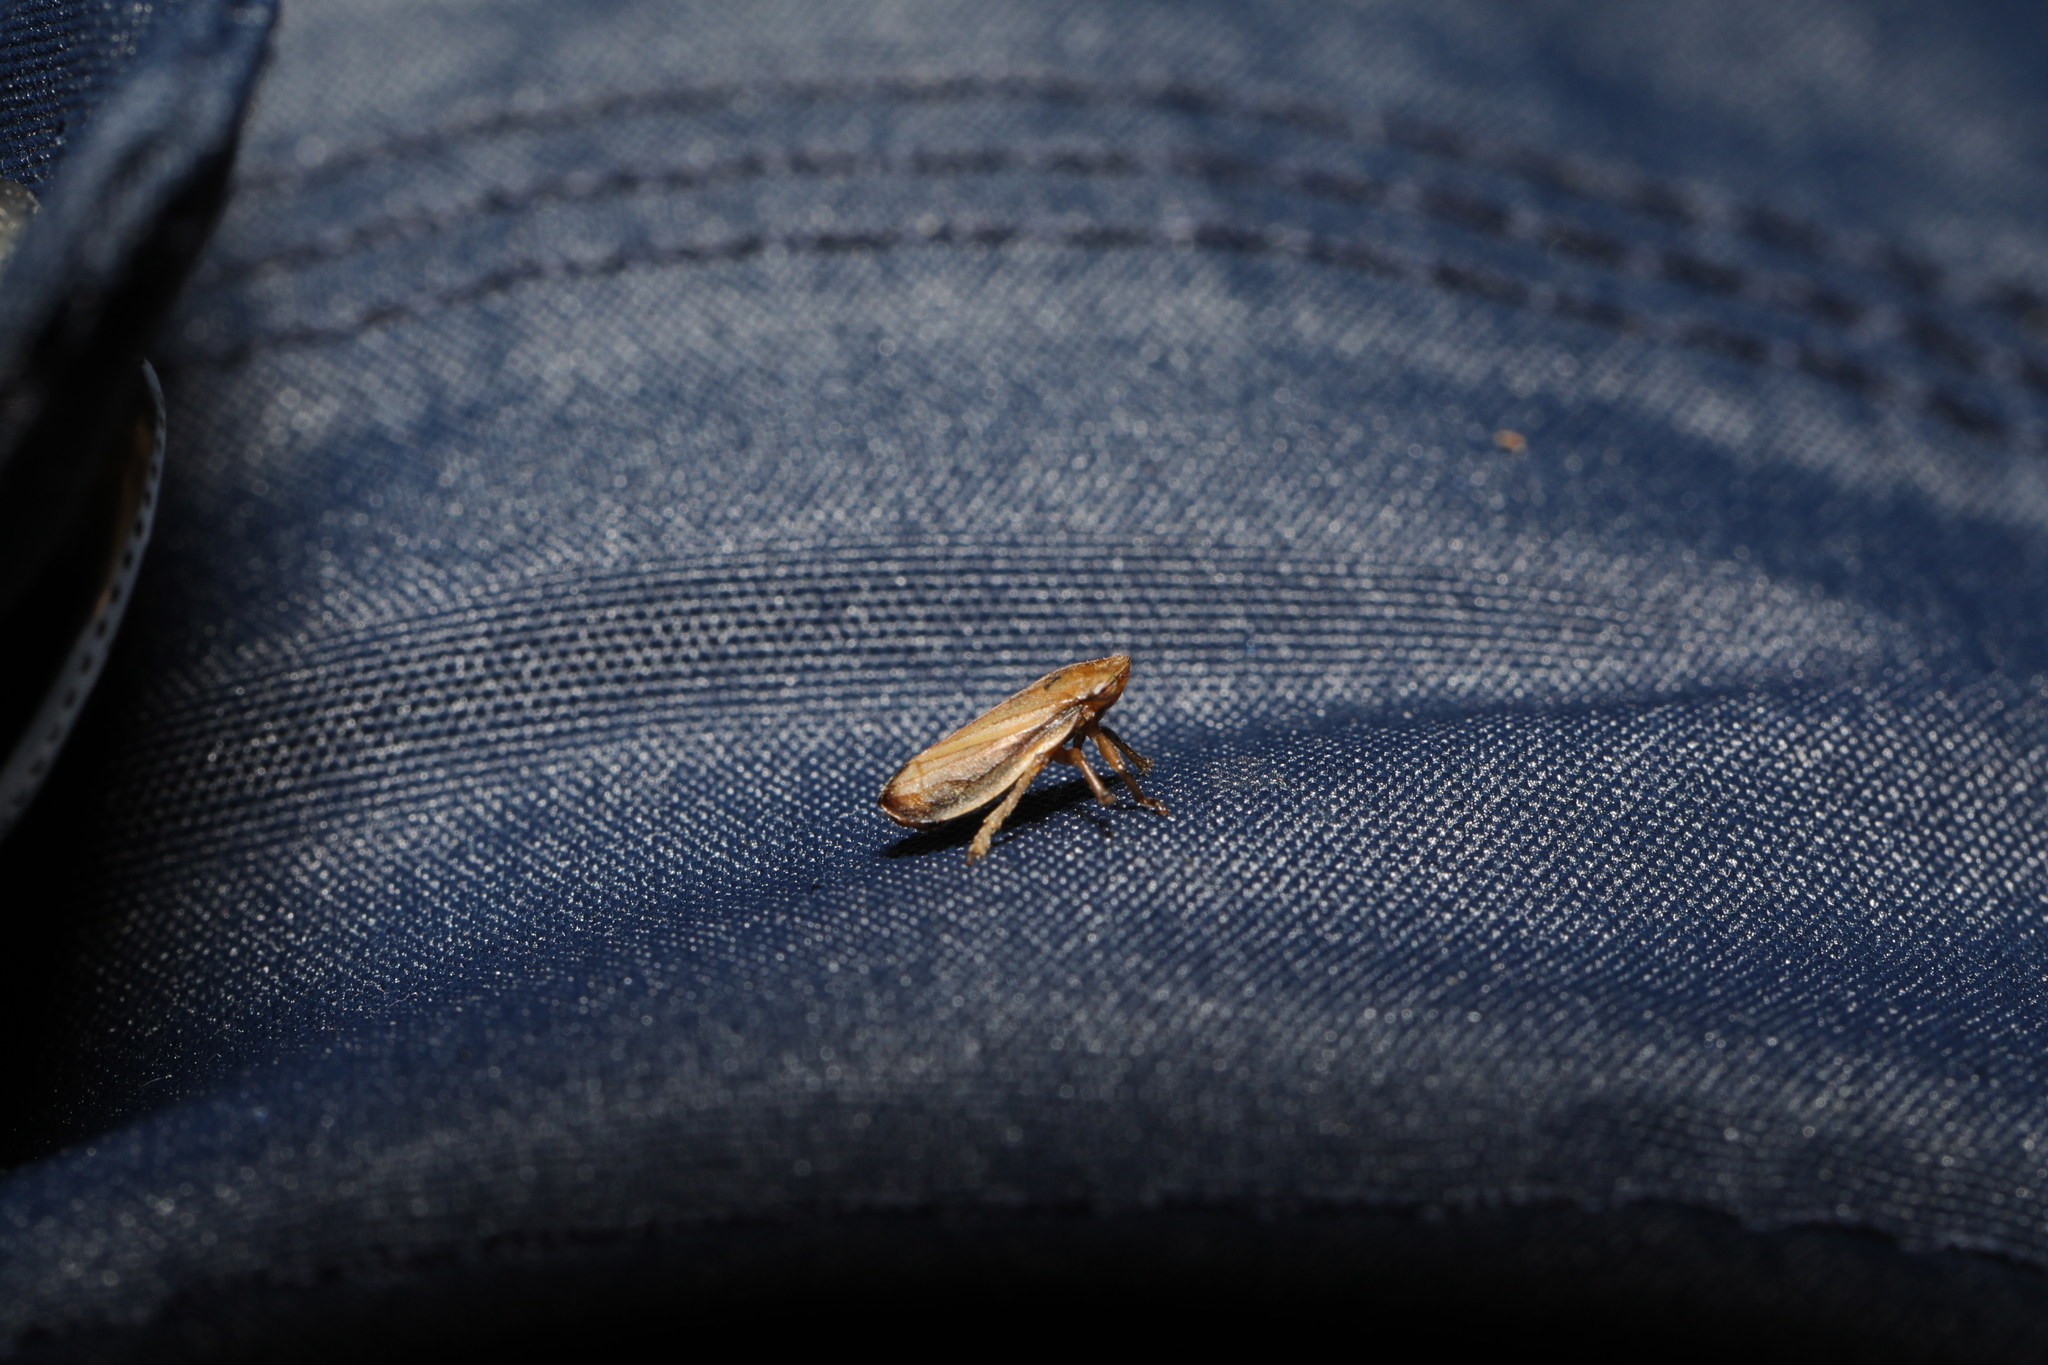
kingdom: Animalia
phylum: Arthropoda
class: Insecta
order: Hemiptera
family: Aphrophoridae
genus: Philaenus
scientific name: Philaenus spumarius
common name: Meadow spittlebug
